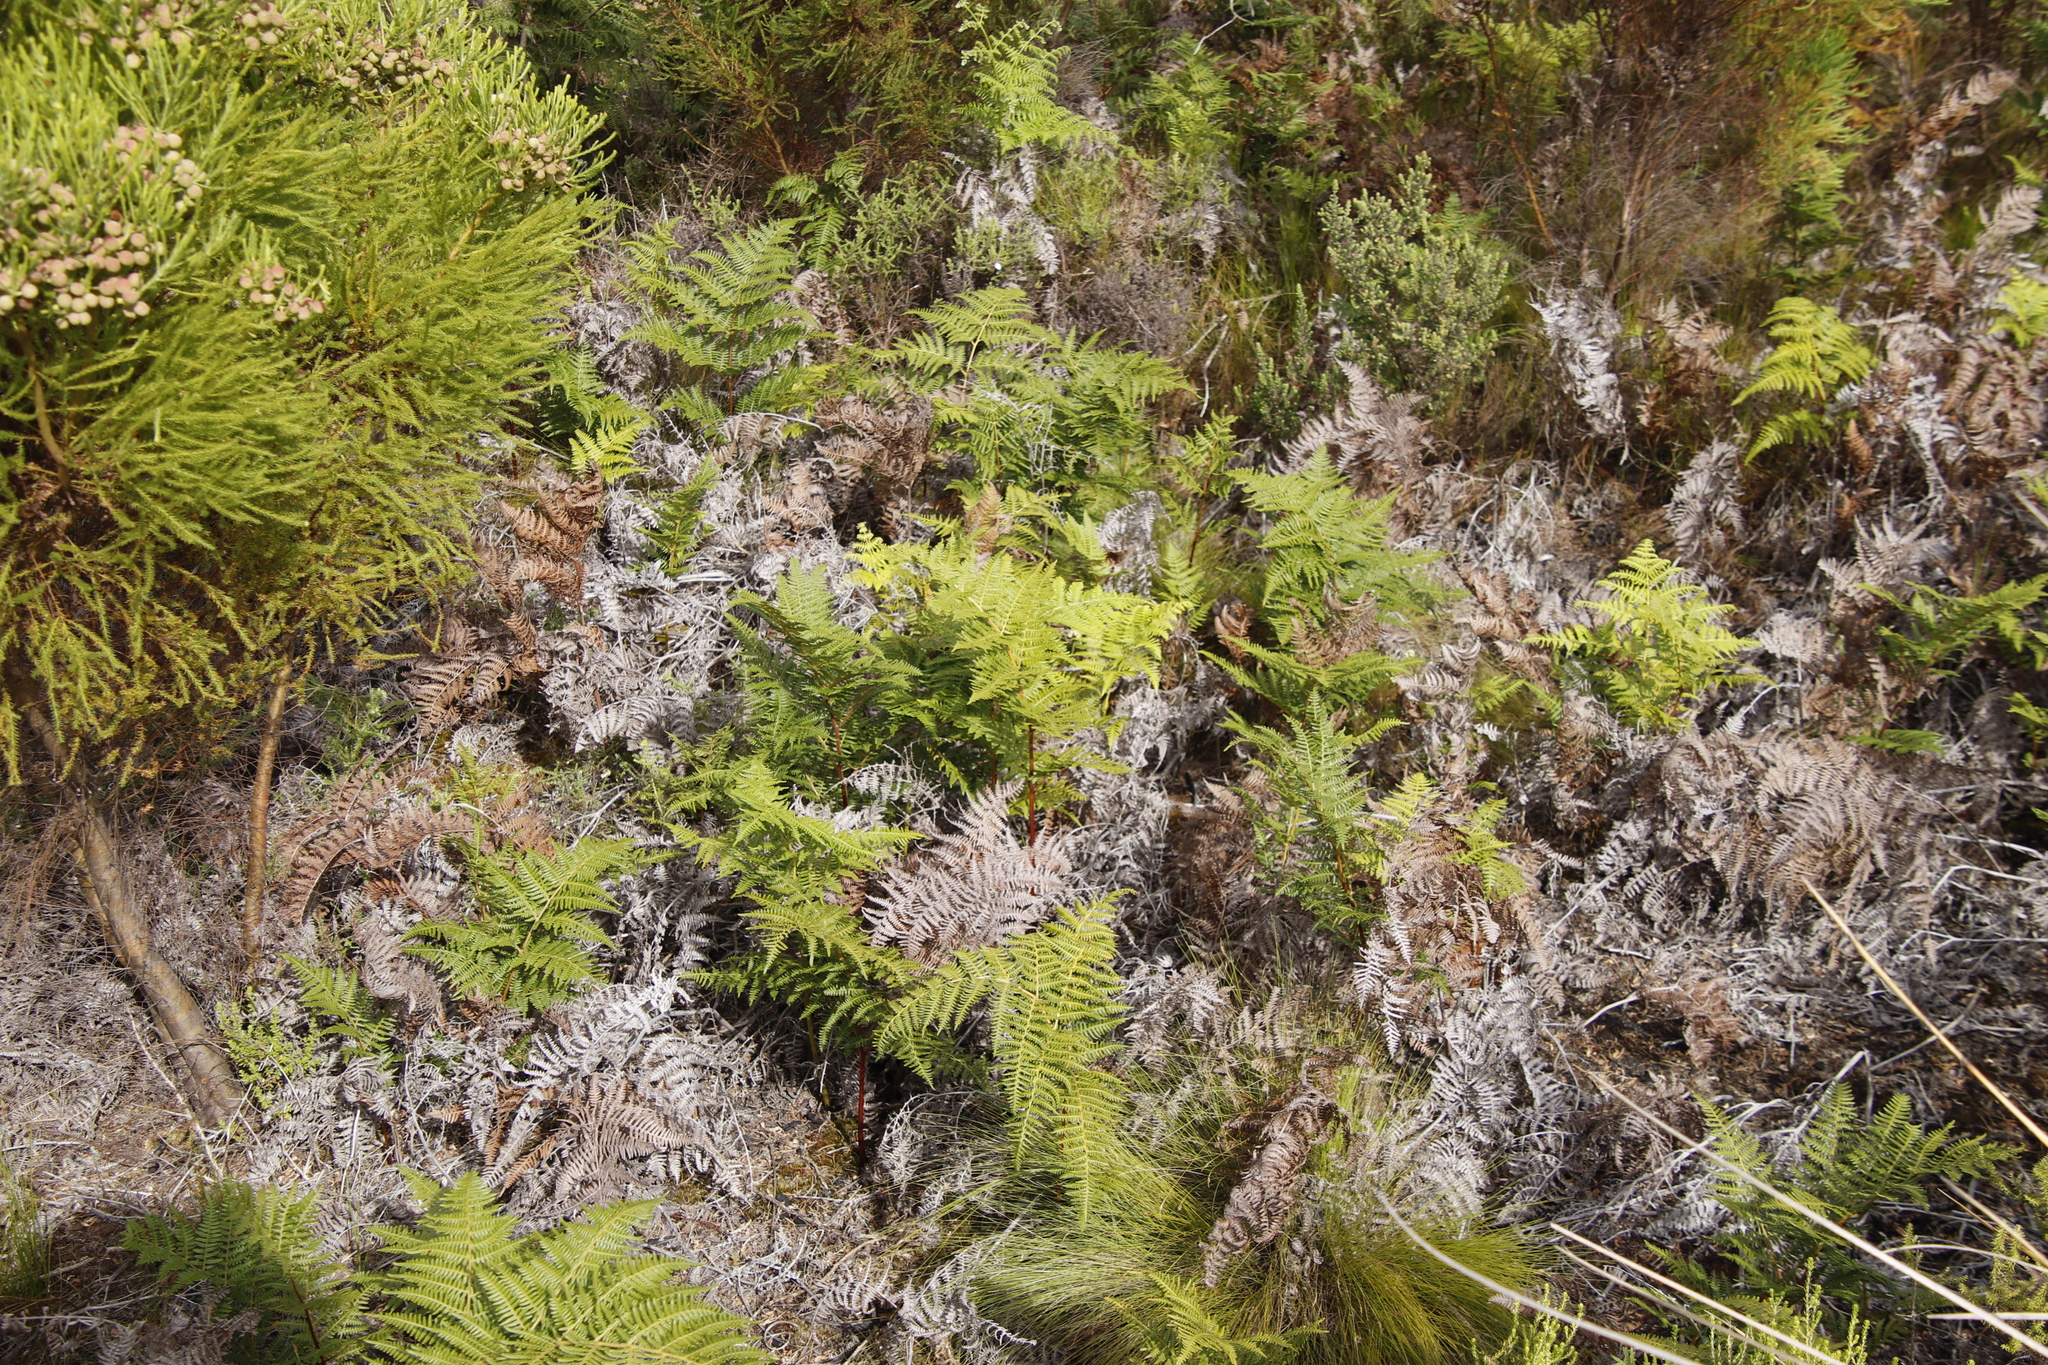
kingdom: Plantae
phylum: Tracheophyta
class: Polypodiopsida
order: Polypodiales
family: Dennstaedtiaceae
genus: Pteridium
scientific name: Pteridium aquilinum
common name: Bracken
